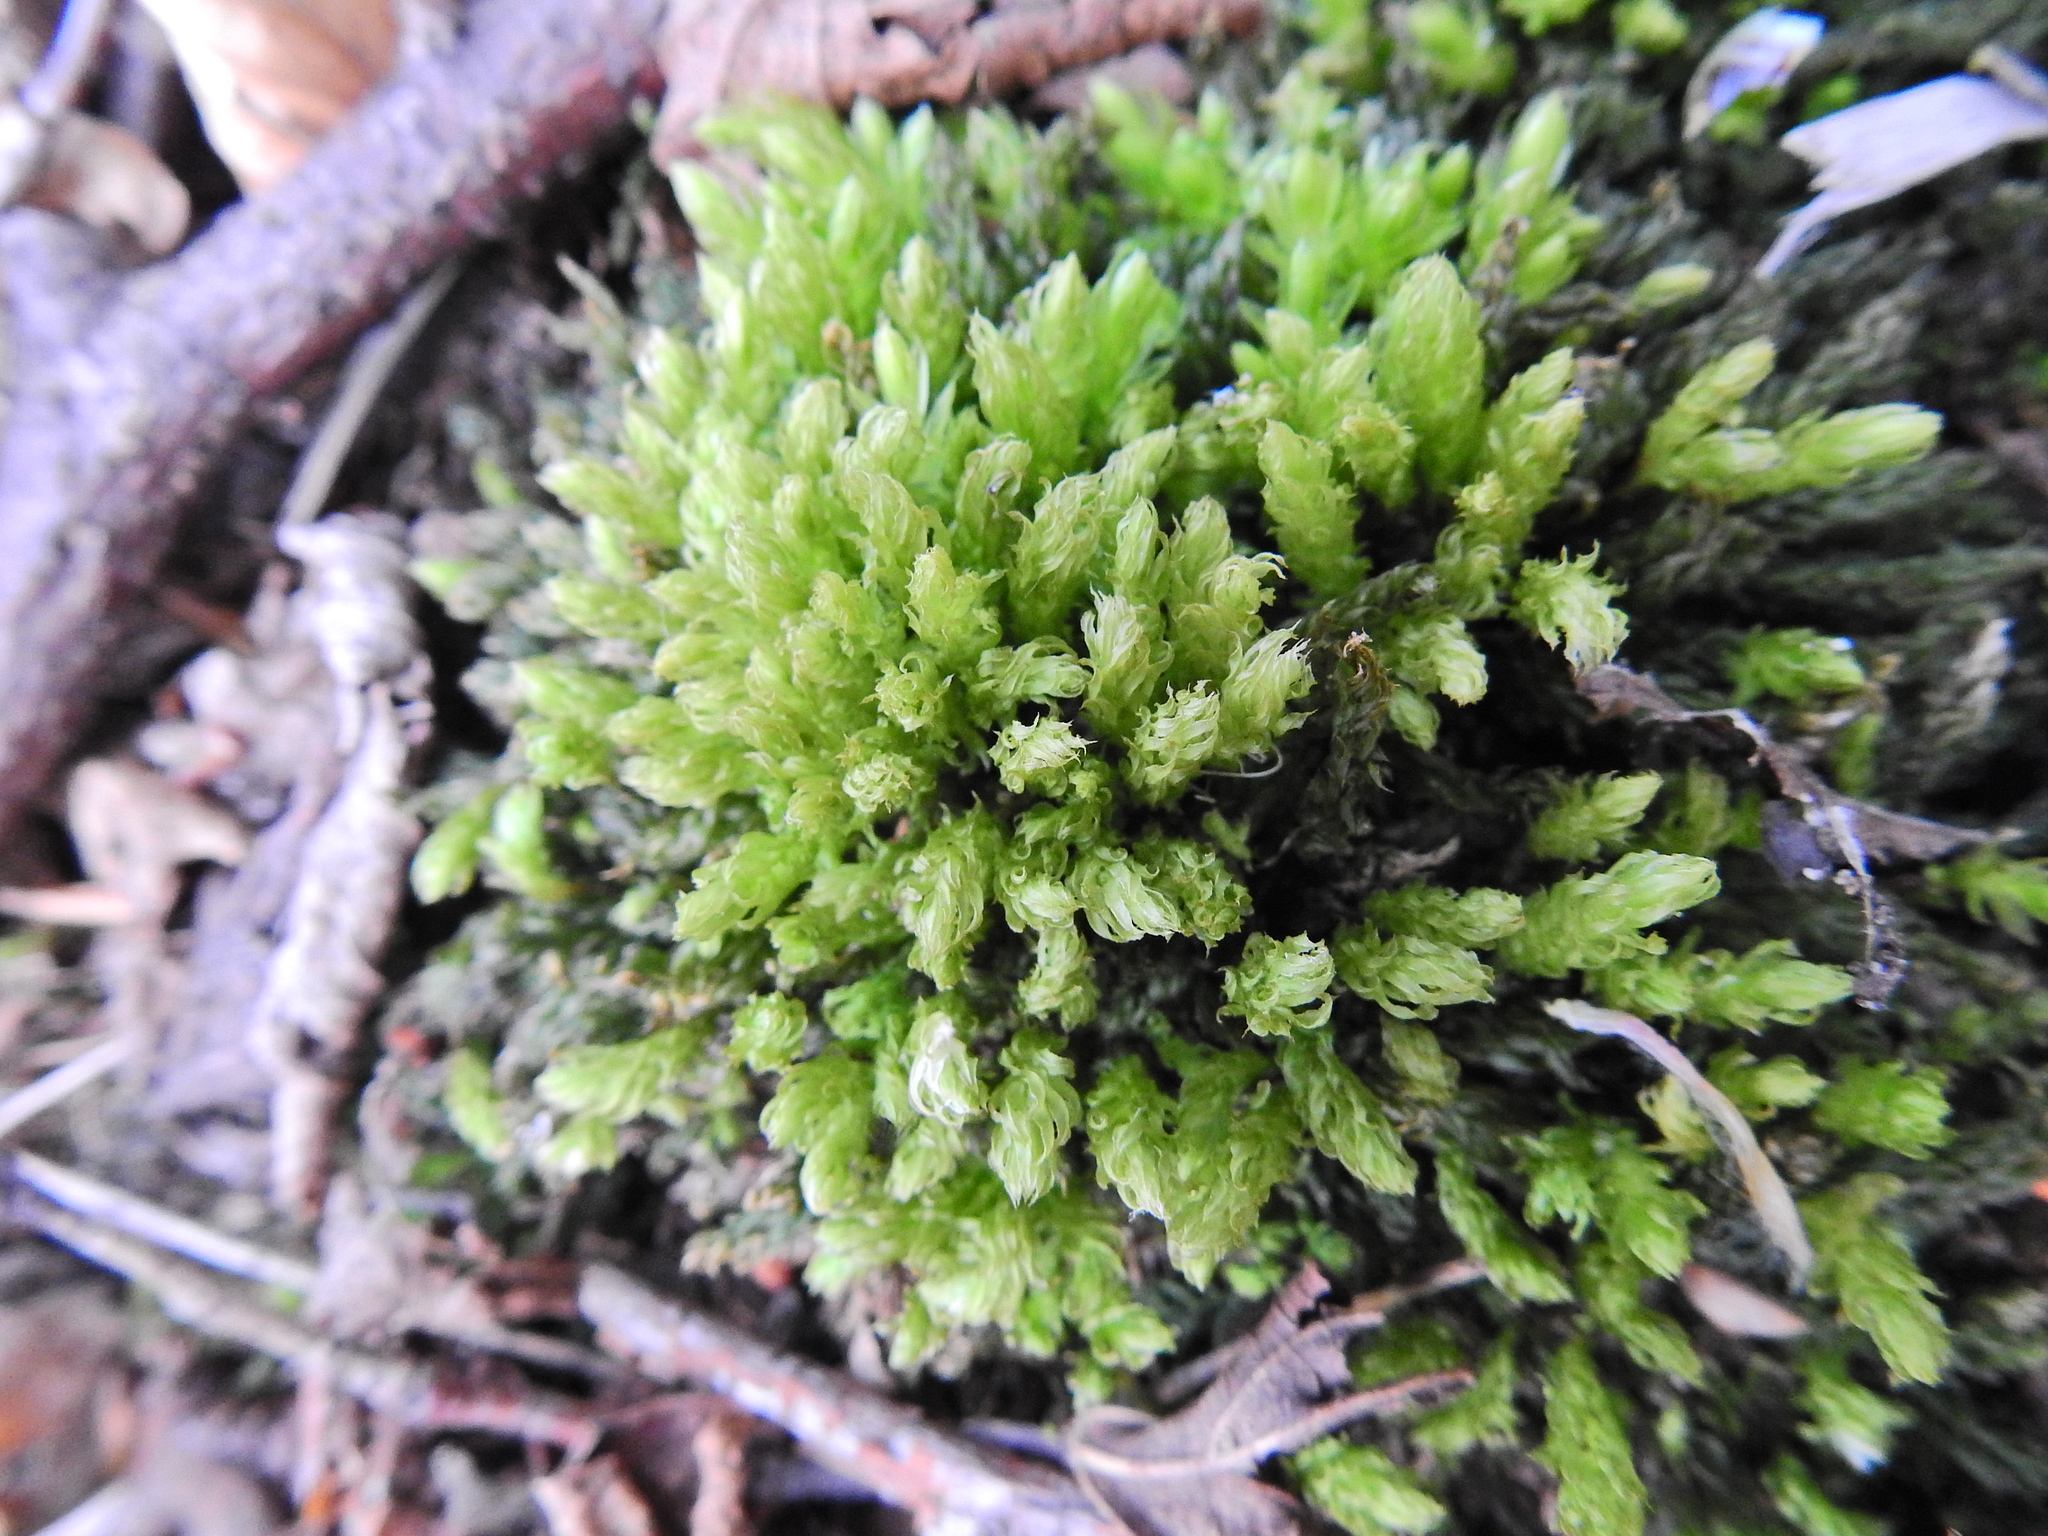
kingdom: Plantae
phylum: Bryophyta
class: Bryopsida
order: Bryales
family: Mniaceae
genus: Mnium
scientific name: Mnium hornum
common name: Swan's-neck leafy moss
